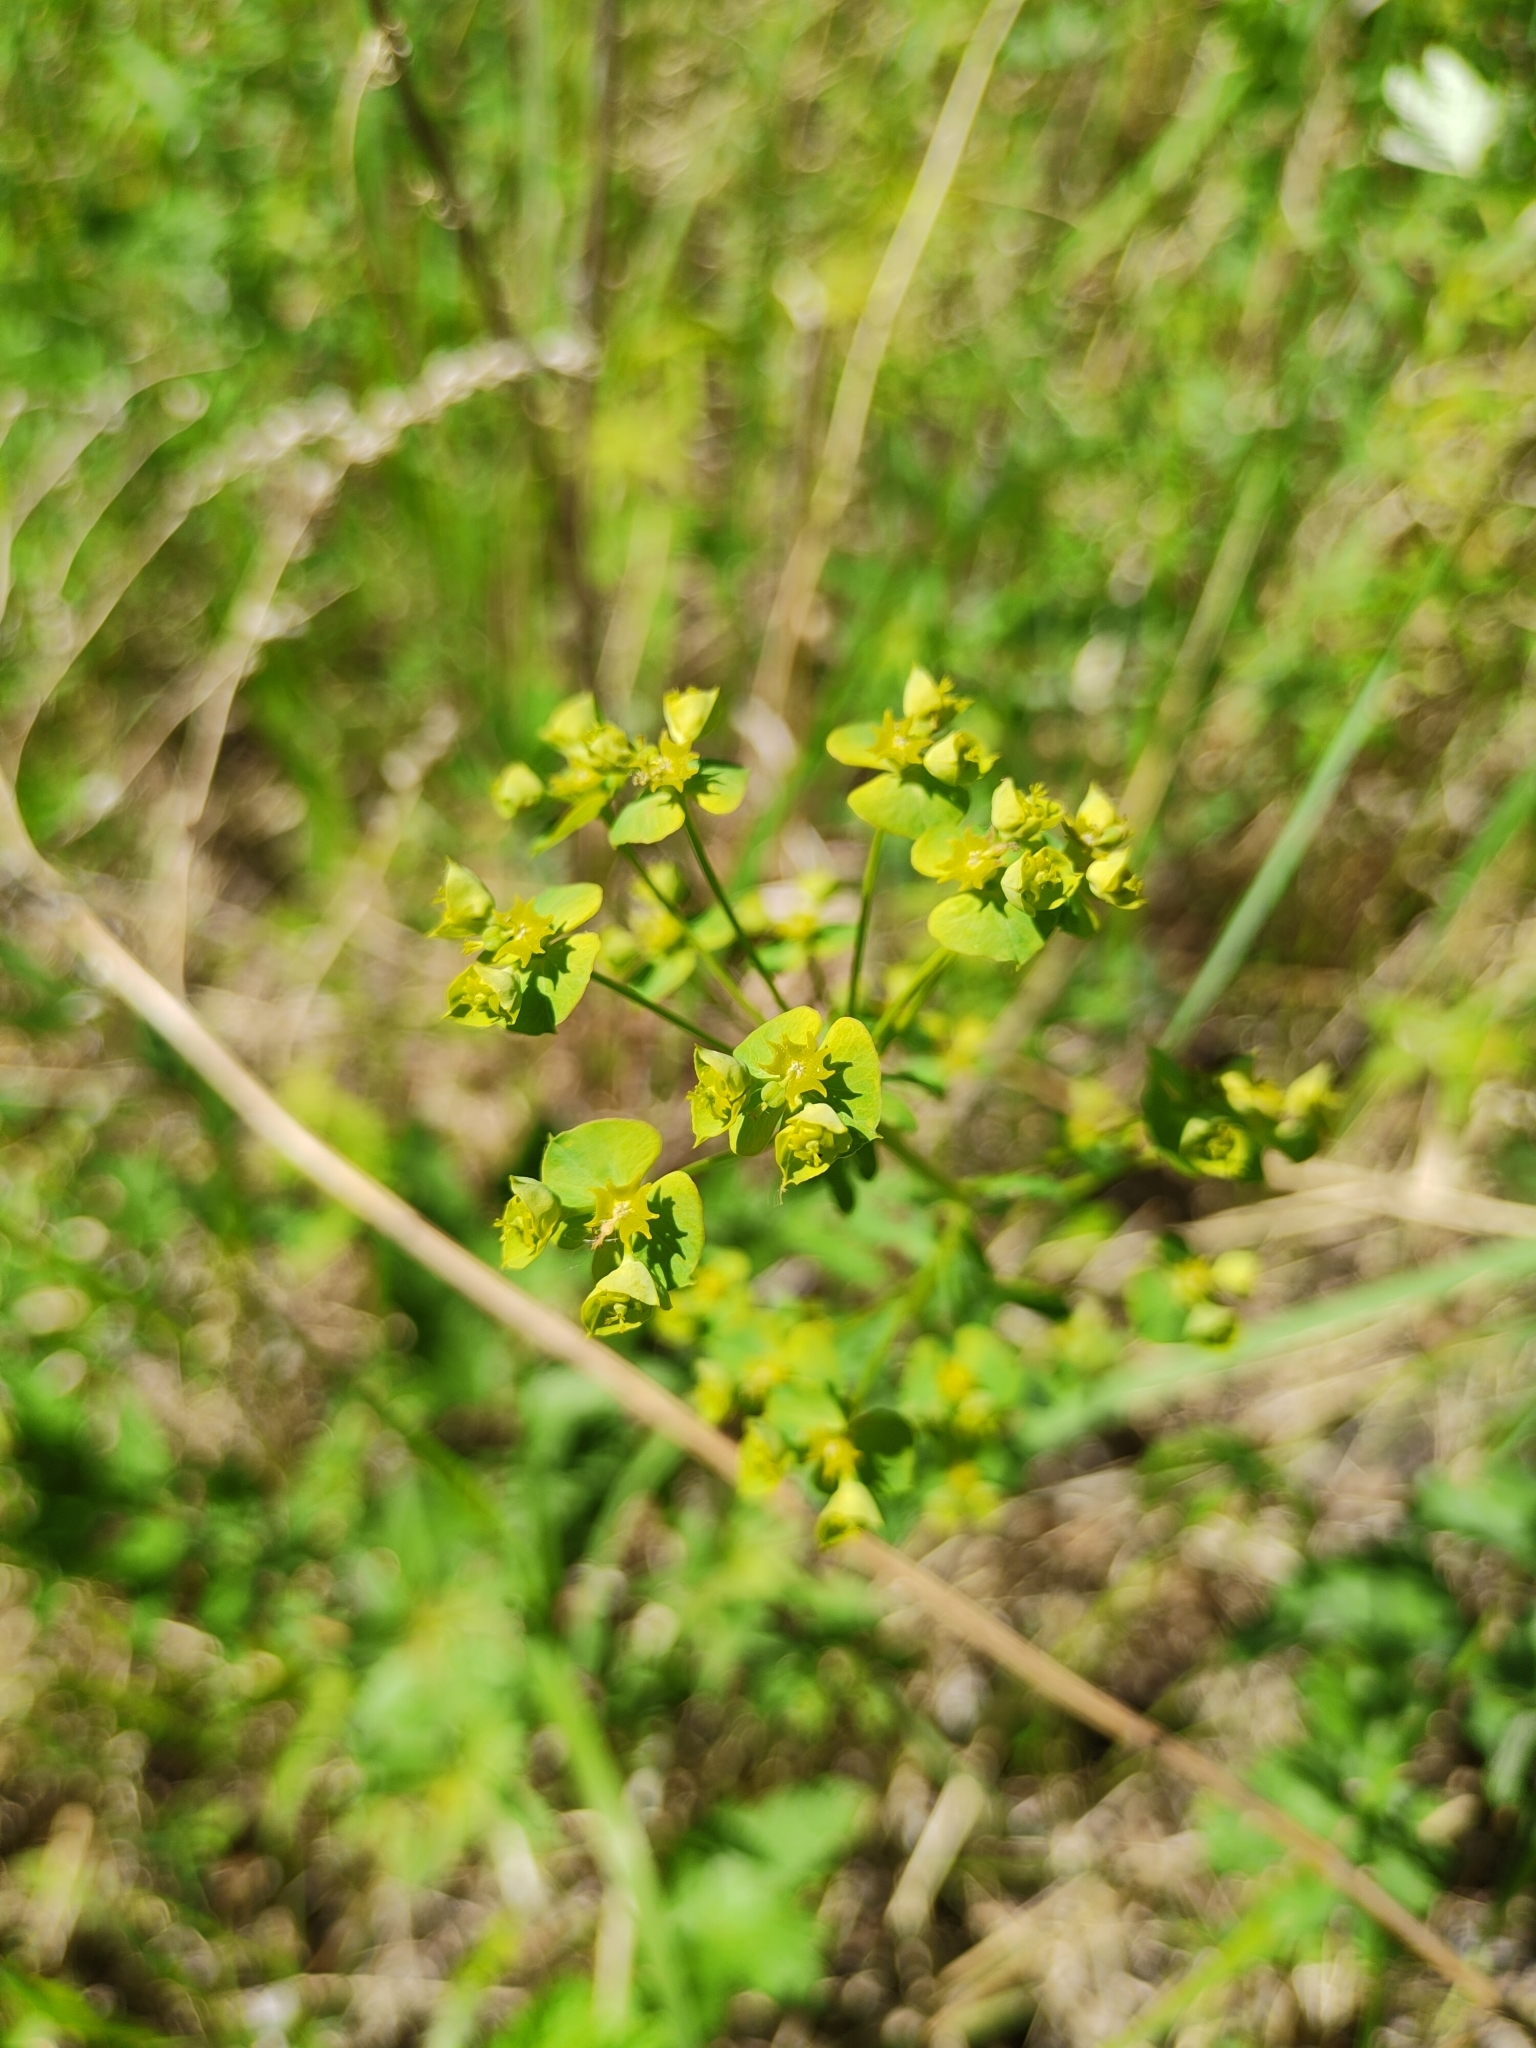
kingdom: Plantae
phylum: Tracheophyta
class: Magnoliopsida
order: Malpighiales
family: Euphorbiaceae
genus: Euphorbia
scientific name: Euphorbia virgata
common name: Leafy spurge
